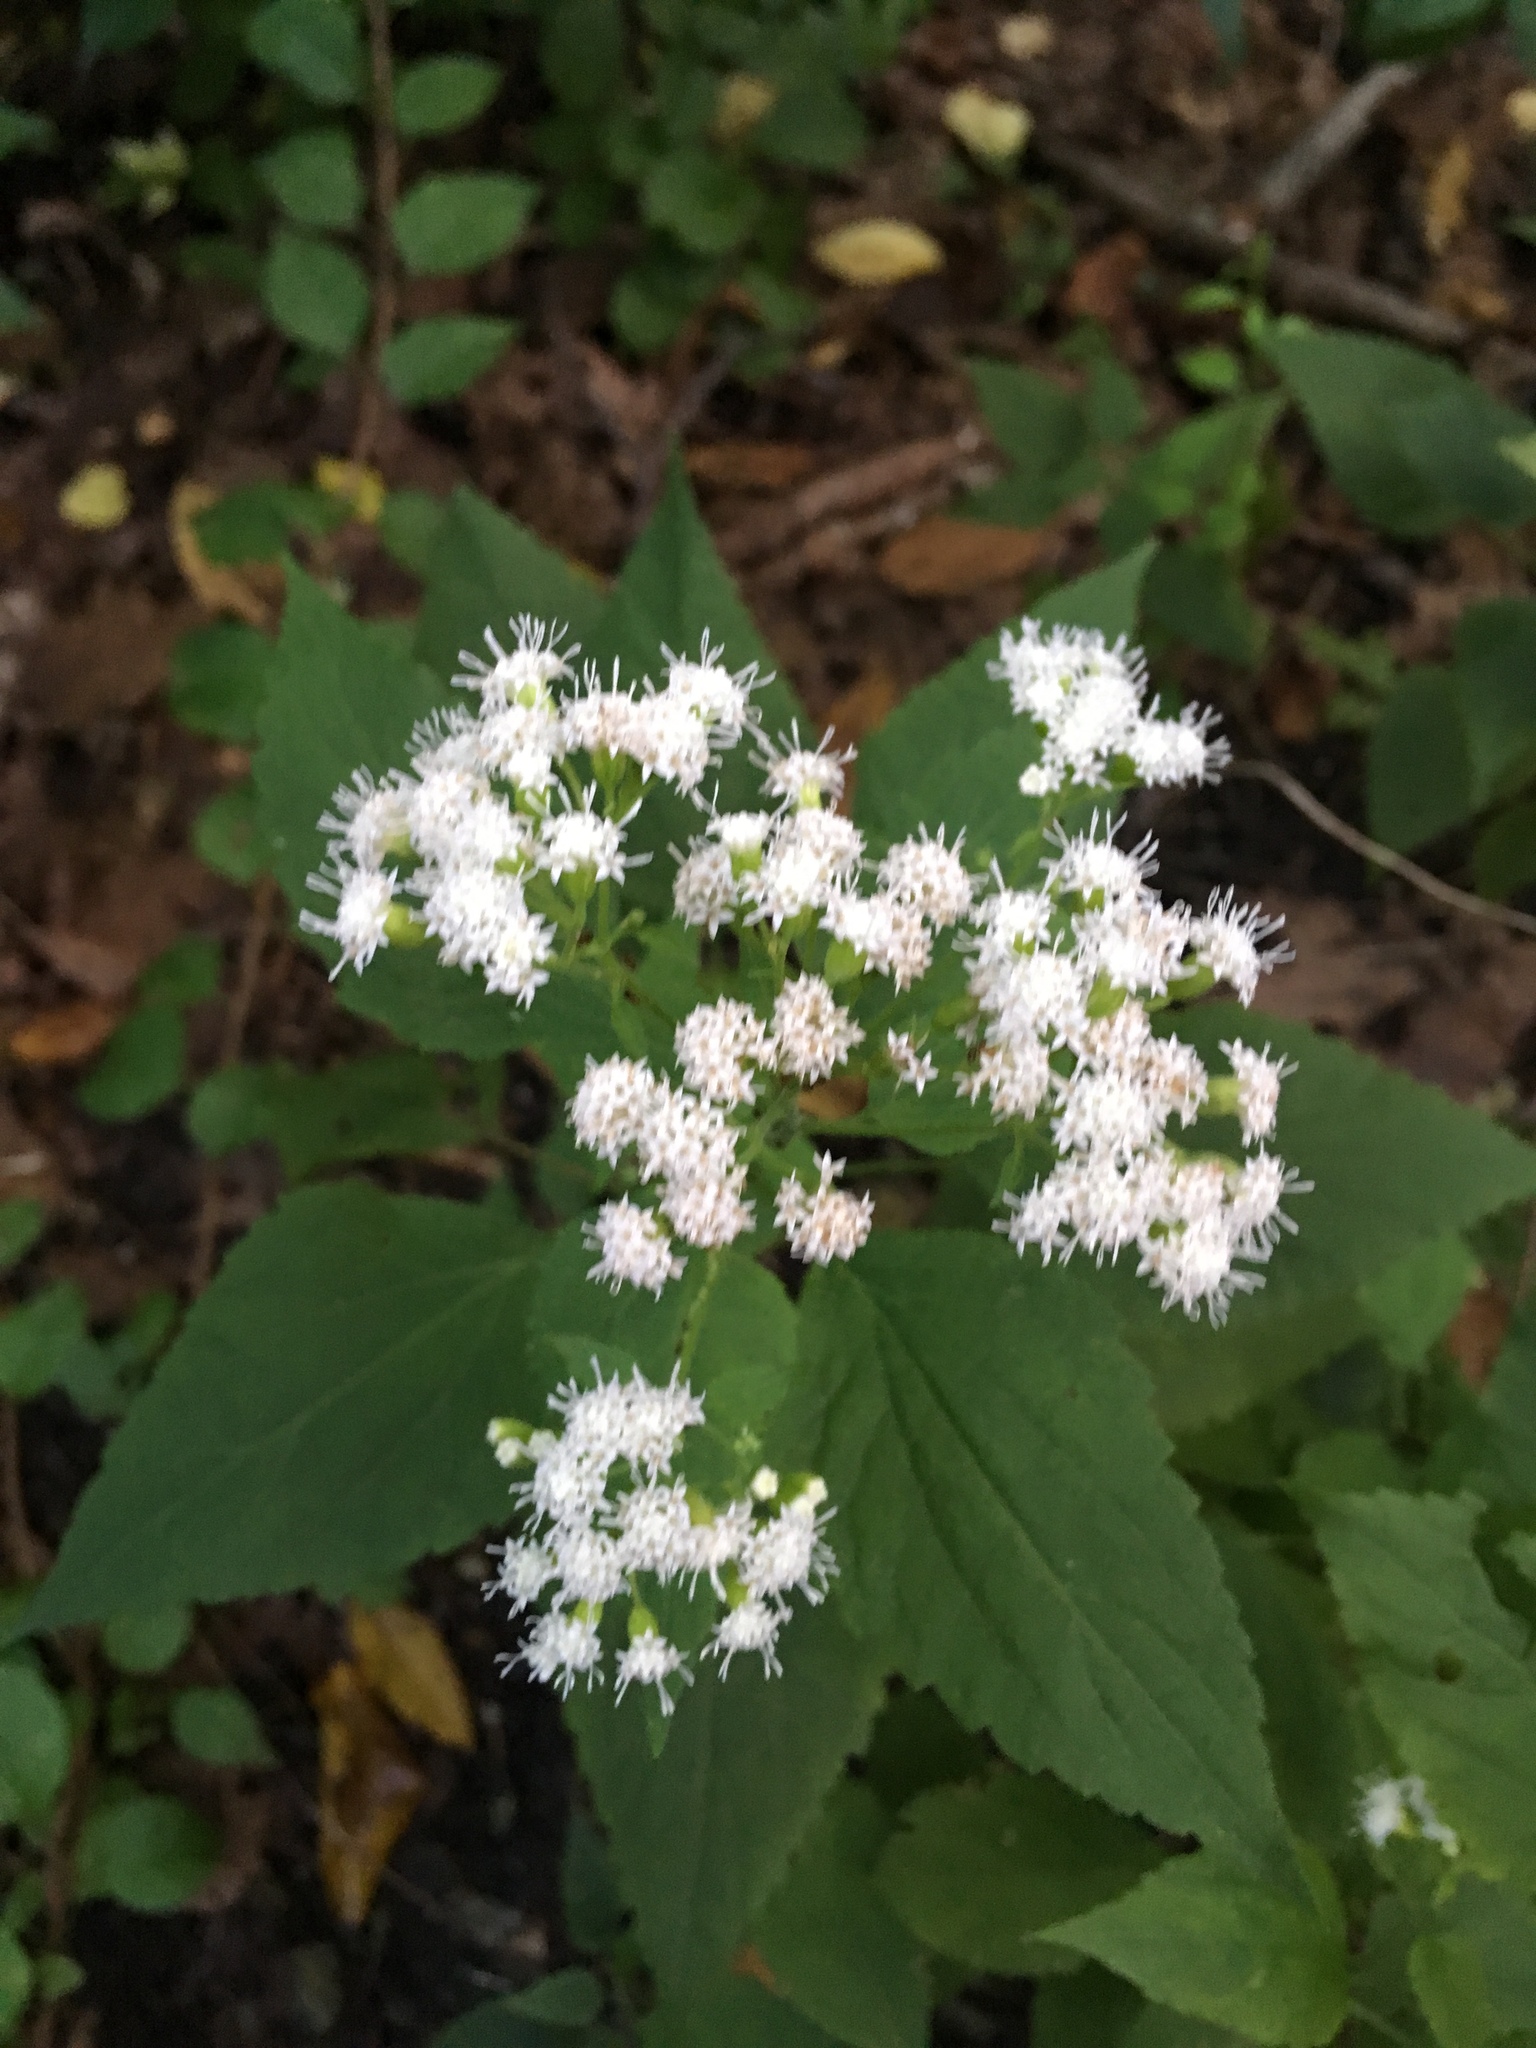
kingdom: Plantae
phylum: Tracheophyta
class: Magnoliopsida
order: Asterales
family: Asteraceae
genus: Ageratina
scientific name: Ageratina altissima
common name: White snakeroot
